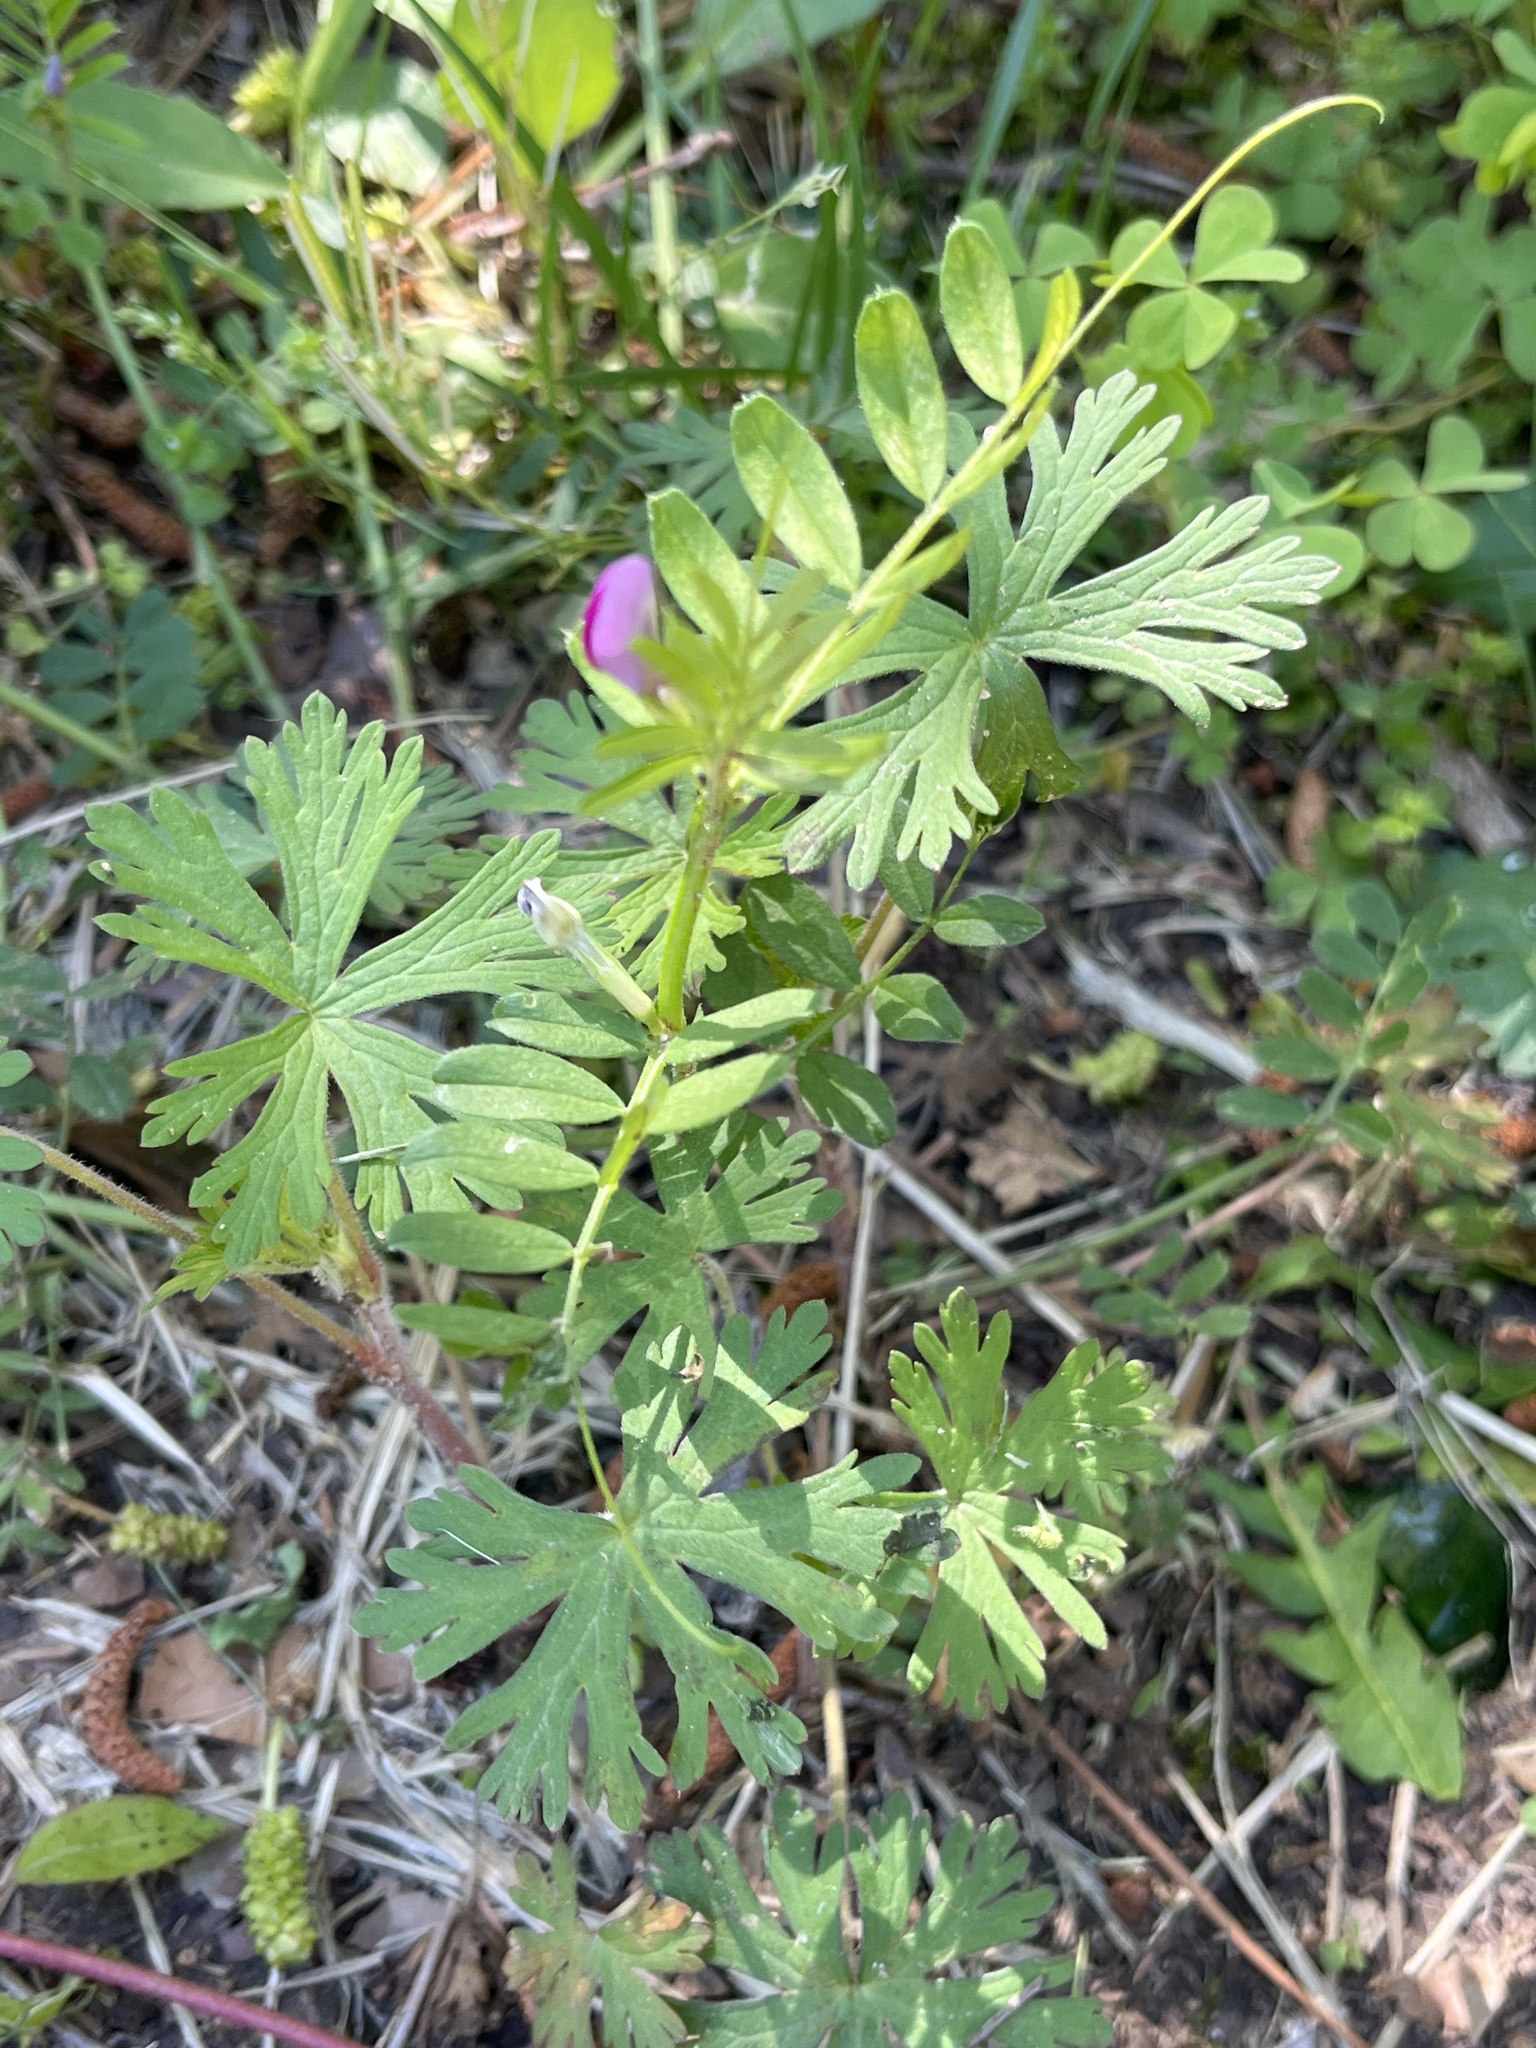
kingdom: Plantae
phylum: Tracheophyta
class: Magnoliopsida
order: Fabales
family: Fabaceae
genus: Vicia
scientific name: Vicia sativa
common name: Garden vetch
